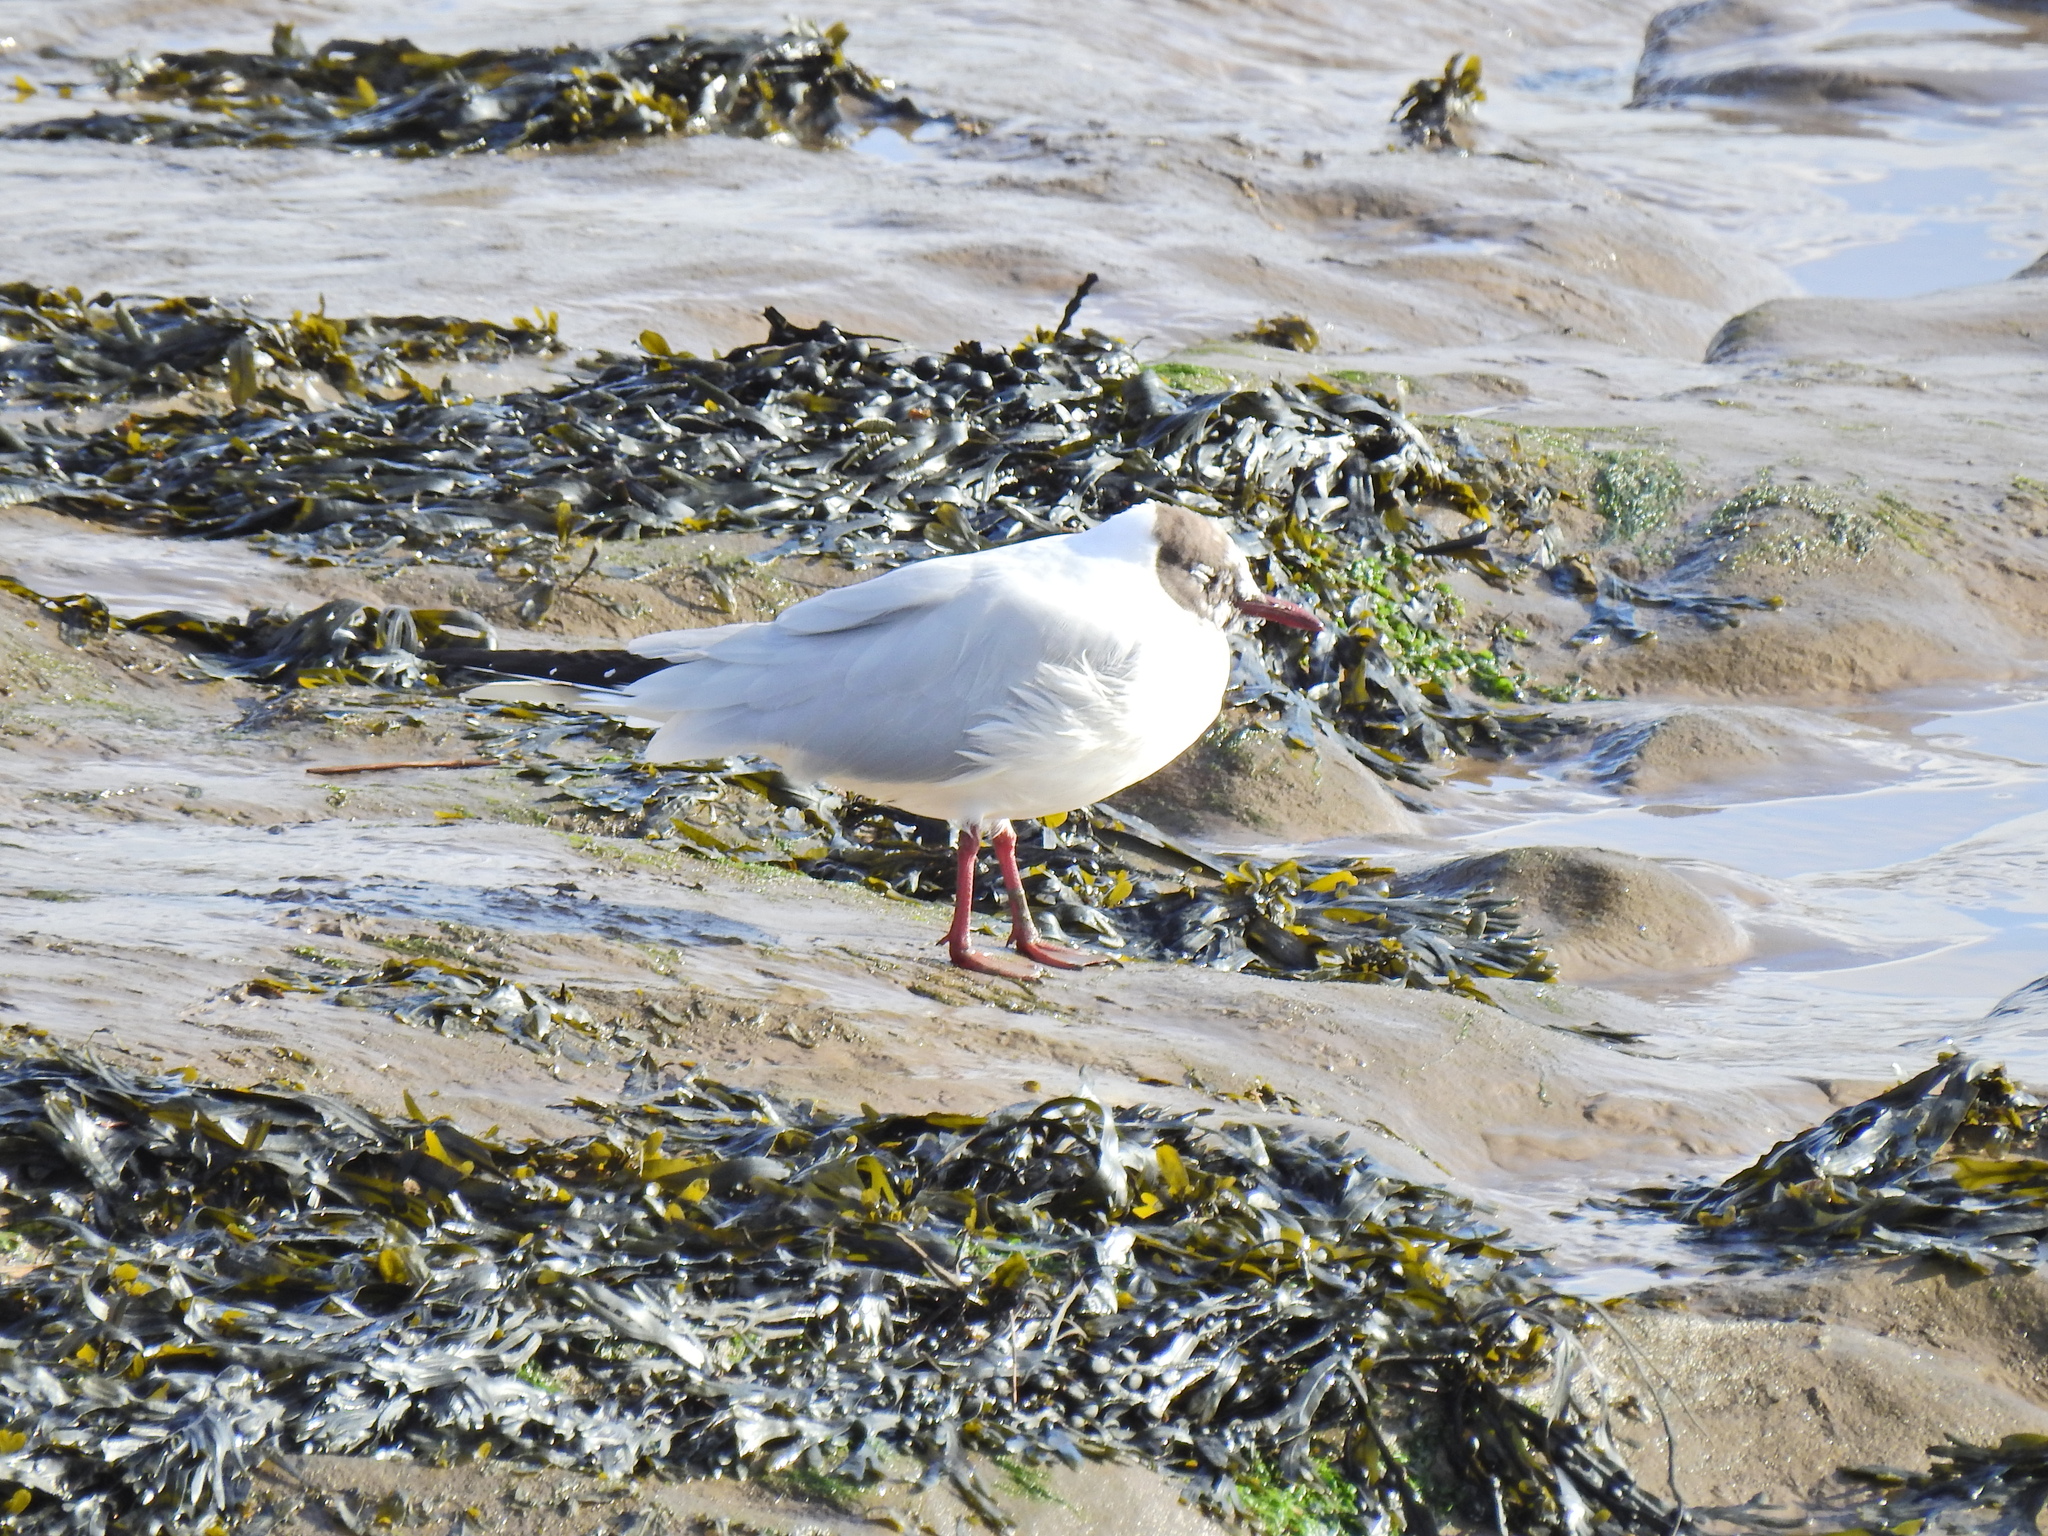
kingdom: Animalia
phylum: Chordata
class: Aves
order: Charadriiformes
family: Laridae
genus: Chroicocephalus
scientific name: Chroicocephalus ridibundus
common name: Black-headed gull
